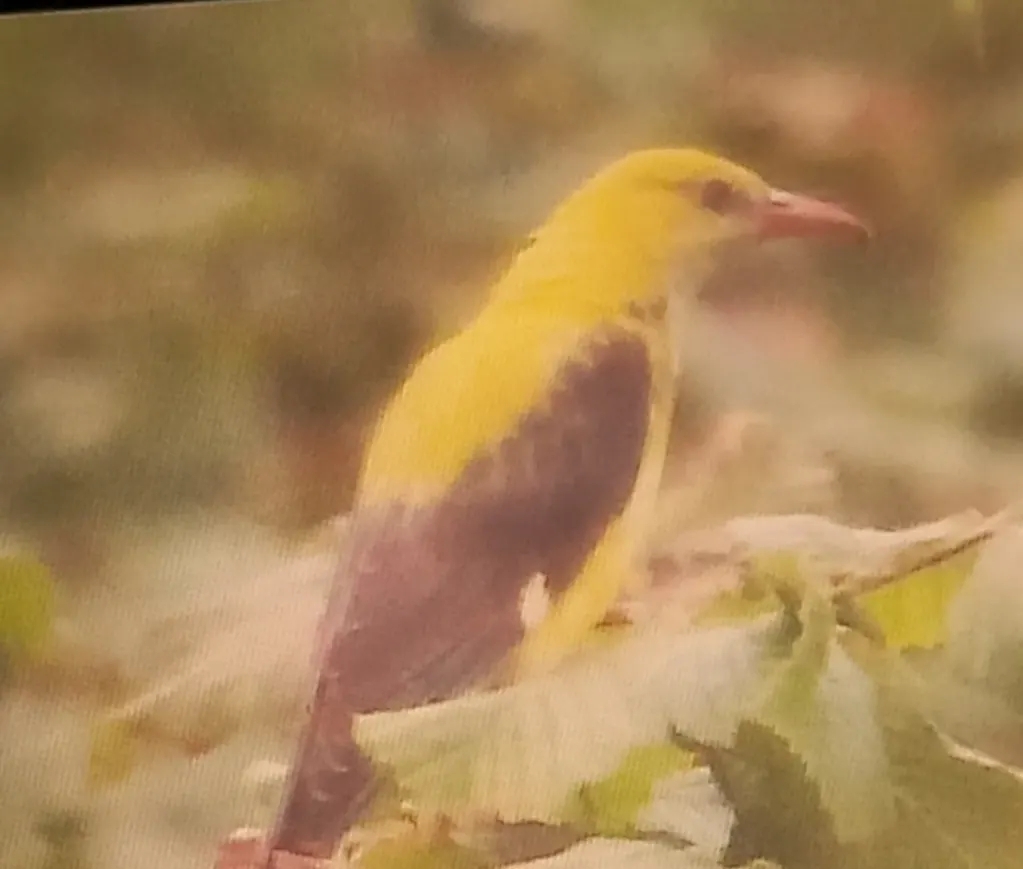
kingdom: Animalia
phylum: Chordata
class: Aves
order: Passeriformes
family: Oriolidae
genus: Oriolus
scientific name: Oriolus oriolus
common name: Eurasian golden oriole
